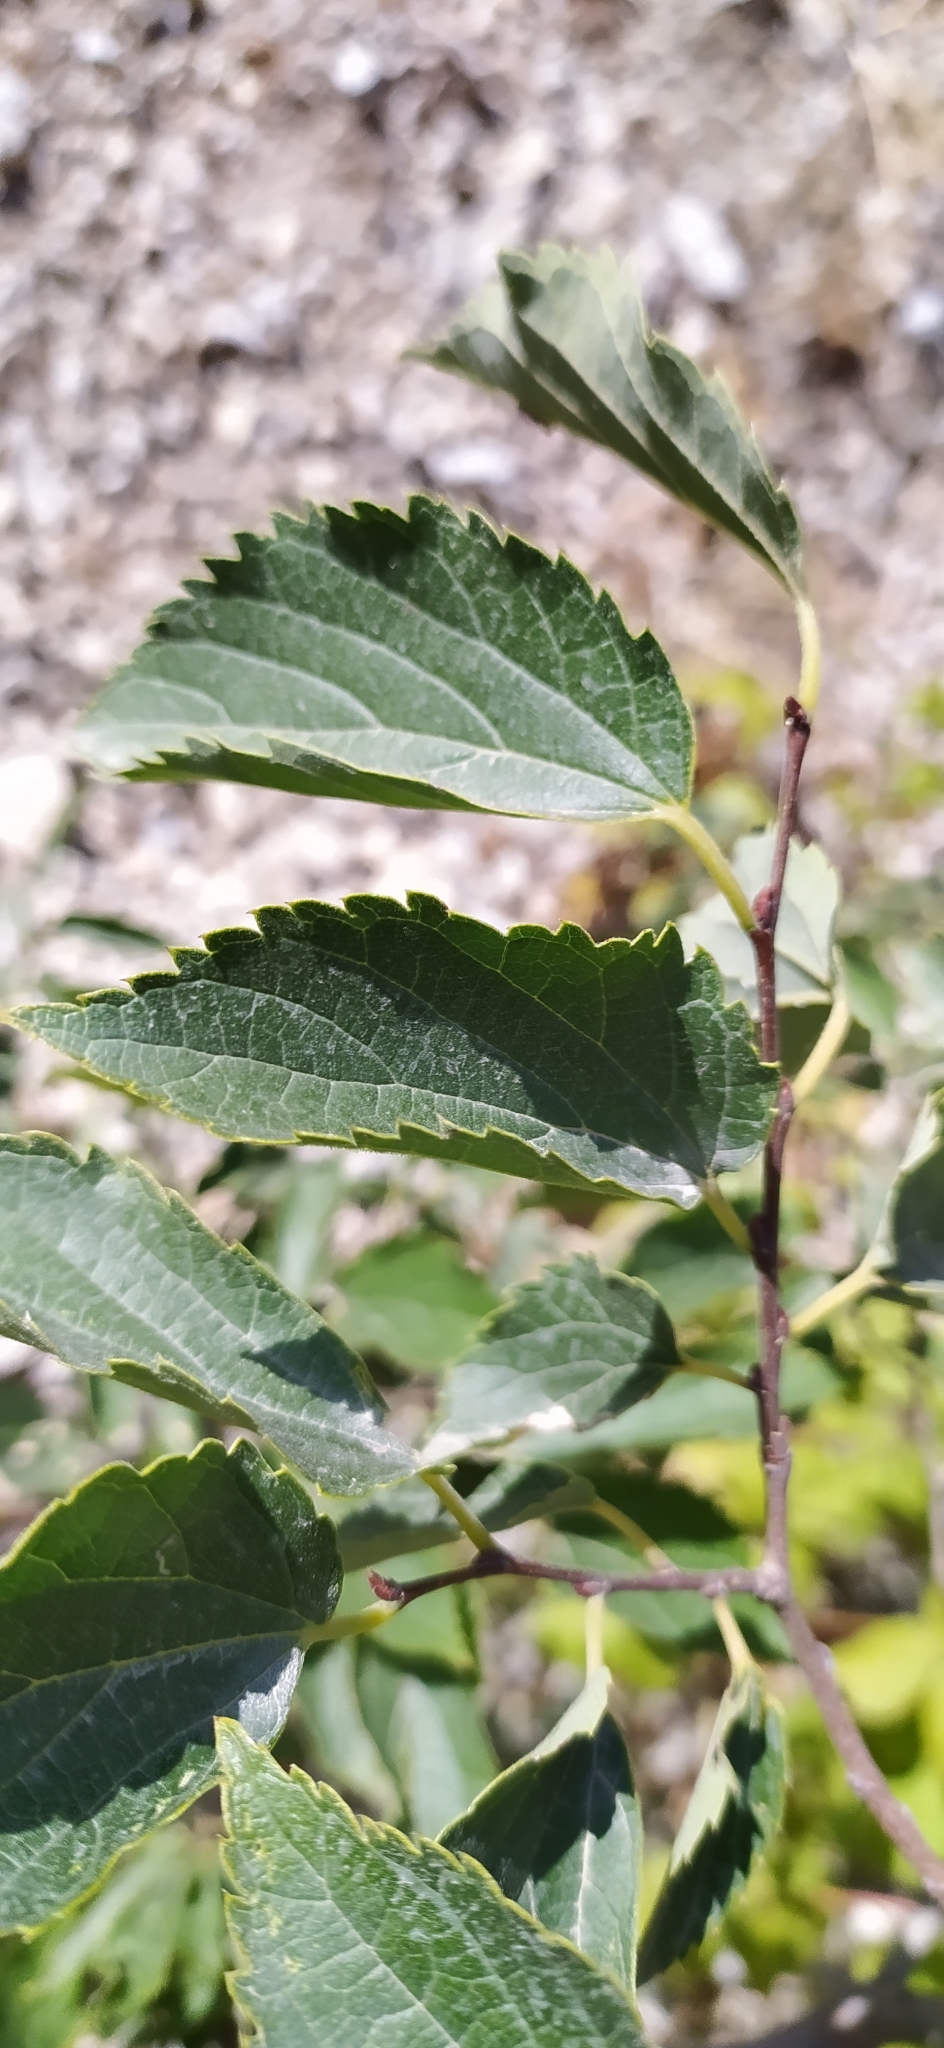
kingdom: Plantae
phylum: Tracheophyta
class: Magnoliopsida
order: Rosales
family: Cannabaceae
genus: Celtis
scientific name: Celtis australis
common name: European hackberry
